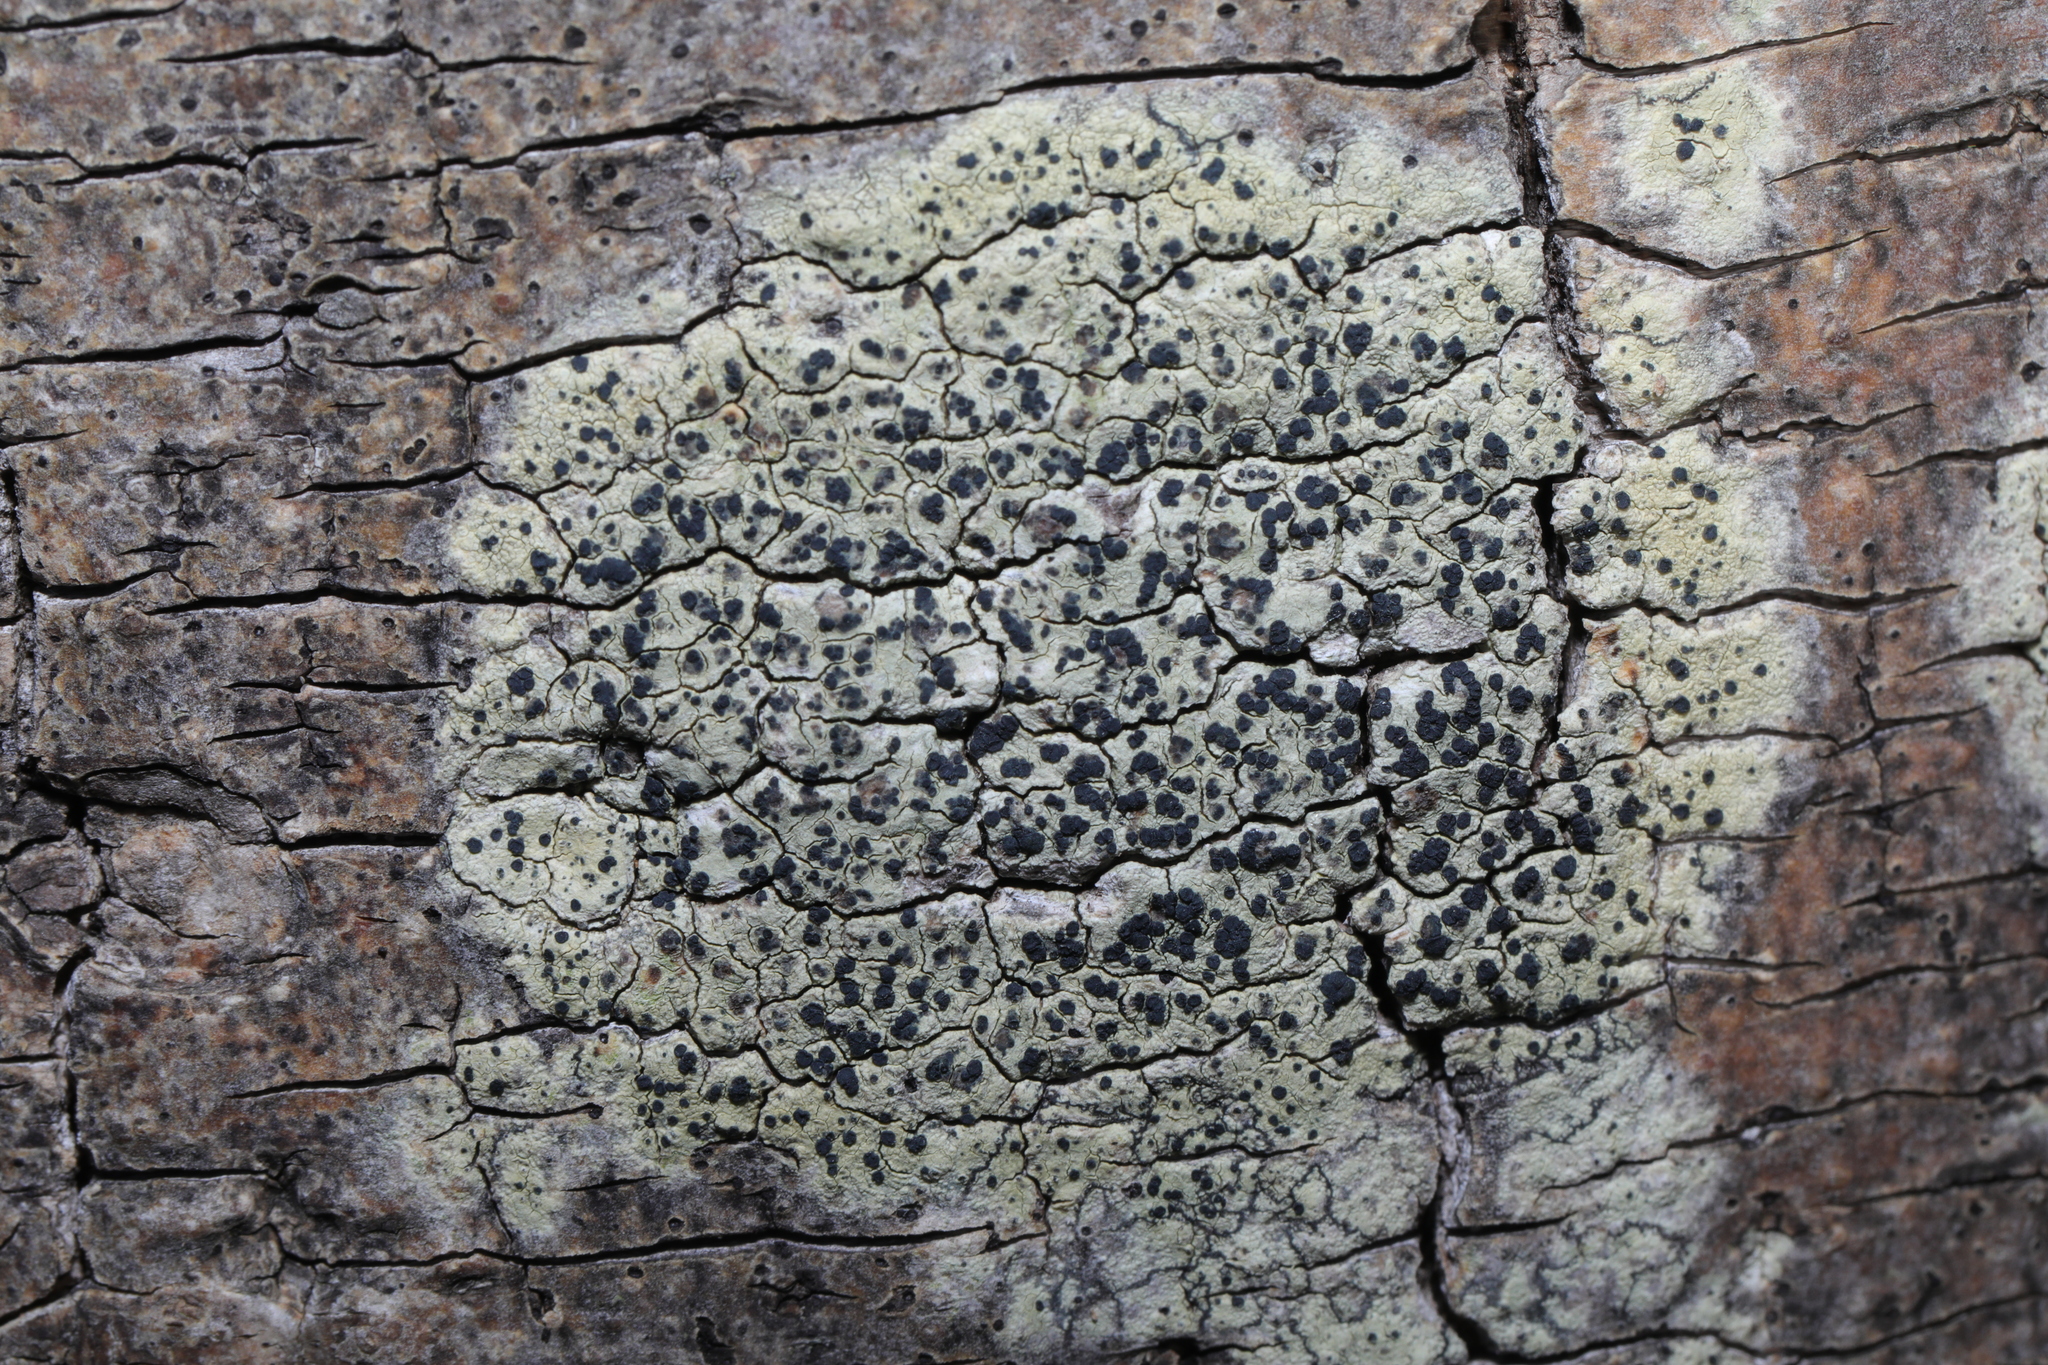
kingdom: Fungi
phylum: Ascomycota
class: Lecanoromycetes
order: Lecanorales
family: Lecanoraceae
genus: Lecidella
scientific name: Lecidella elaeochroma
